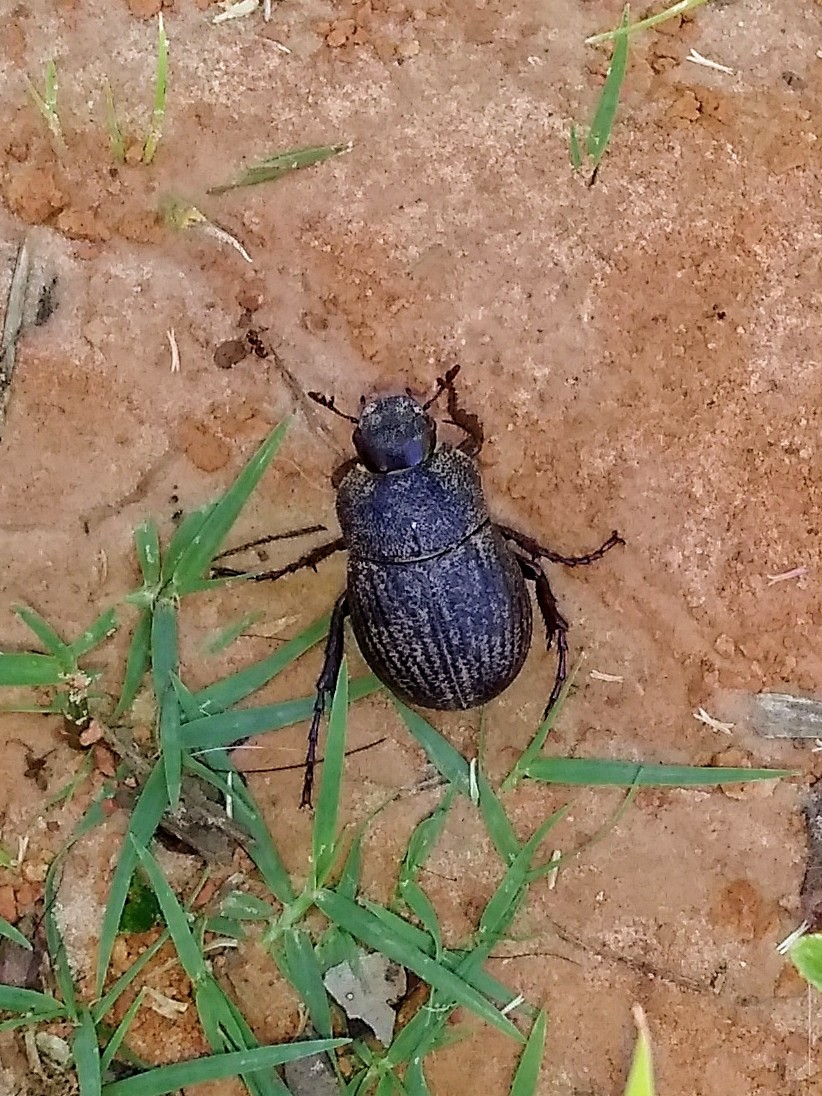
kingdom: Animalia
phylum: Arthropoda
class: Insecta
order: Coleoptera
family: Scarabaeidae
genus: Phyllophaga
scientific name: Phyllophaga cribrosa
